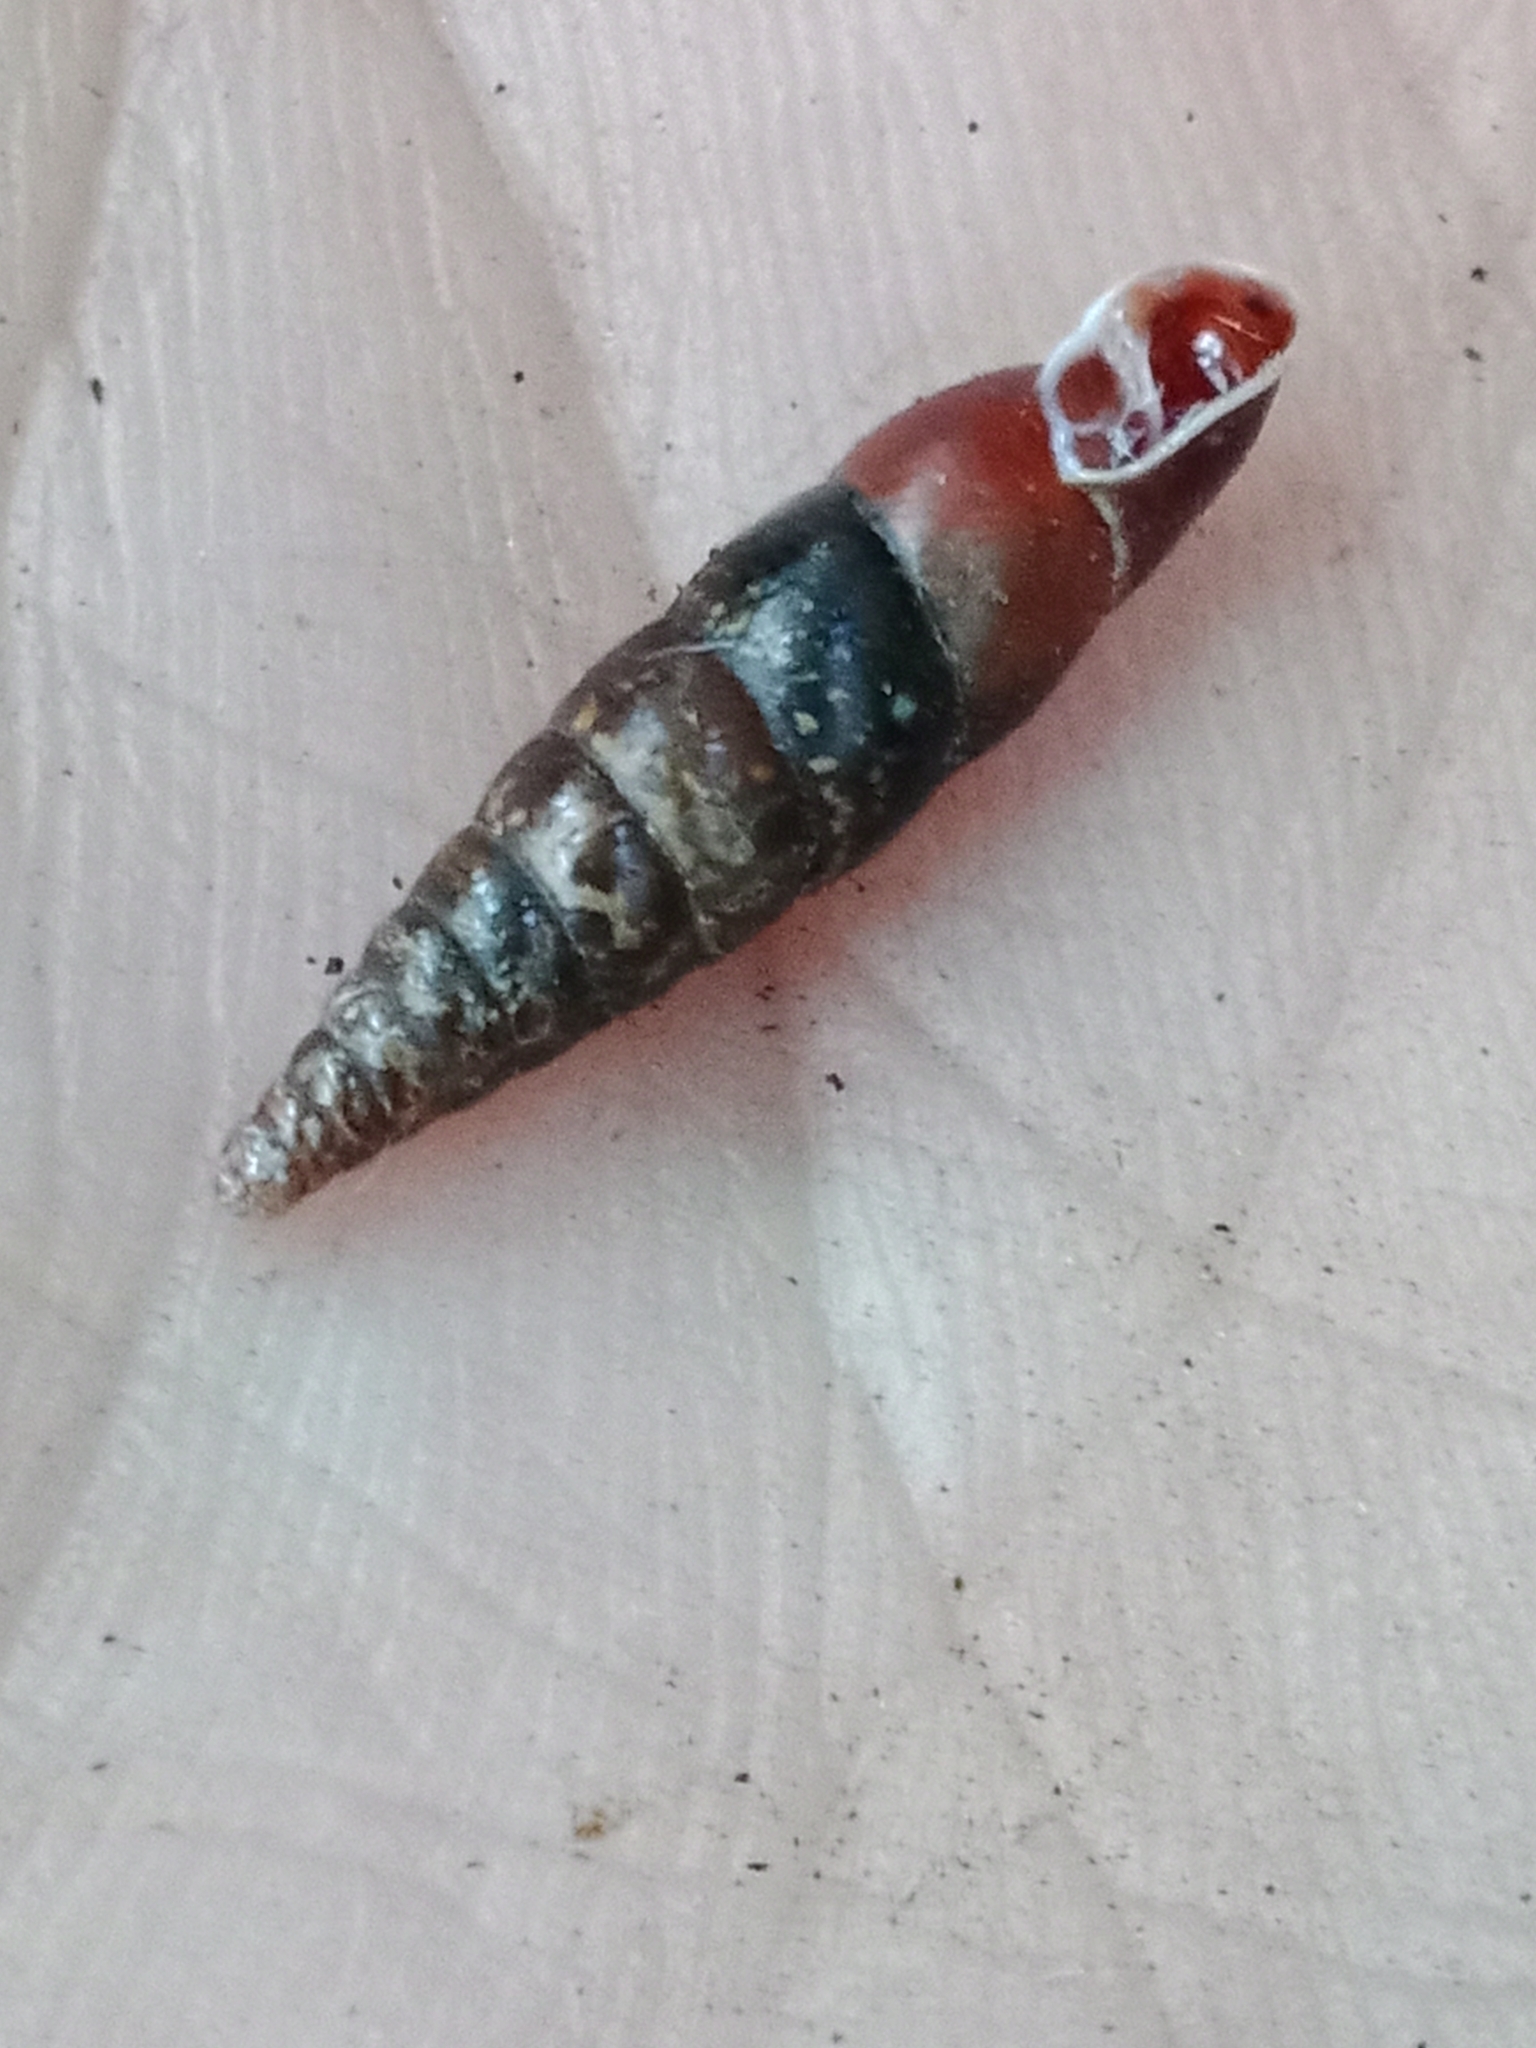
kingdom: Animalia
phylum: Mollusca
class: Gastropoda
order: Stylommatophora
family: Clausiliidae
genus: Cochlodina
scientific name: Cochlodina laminata
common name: Plaited door snail
